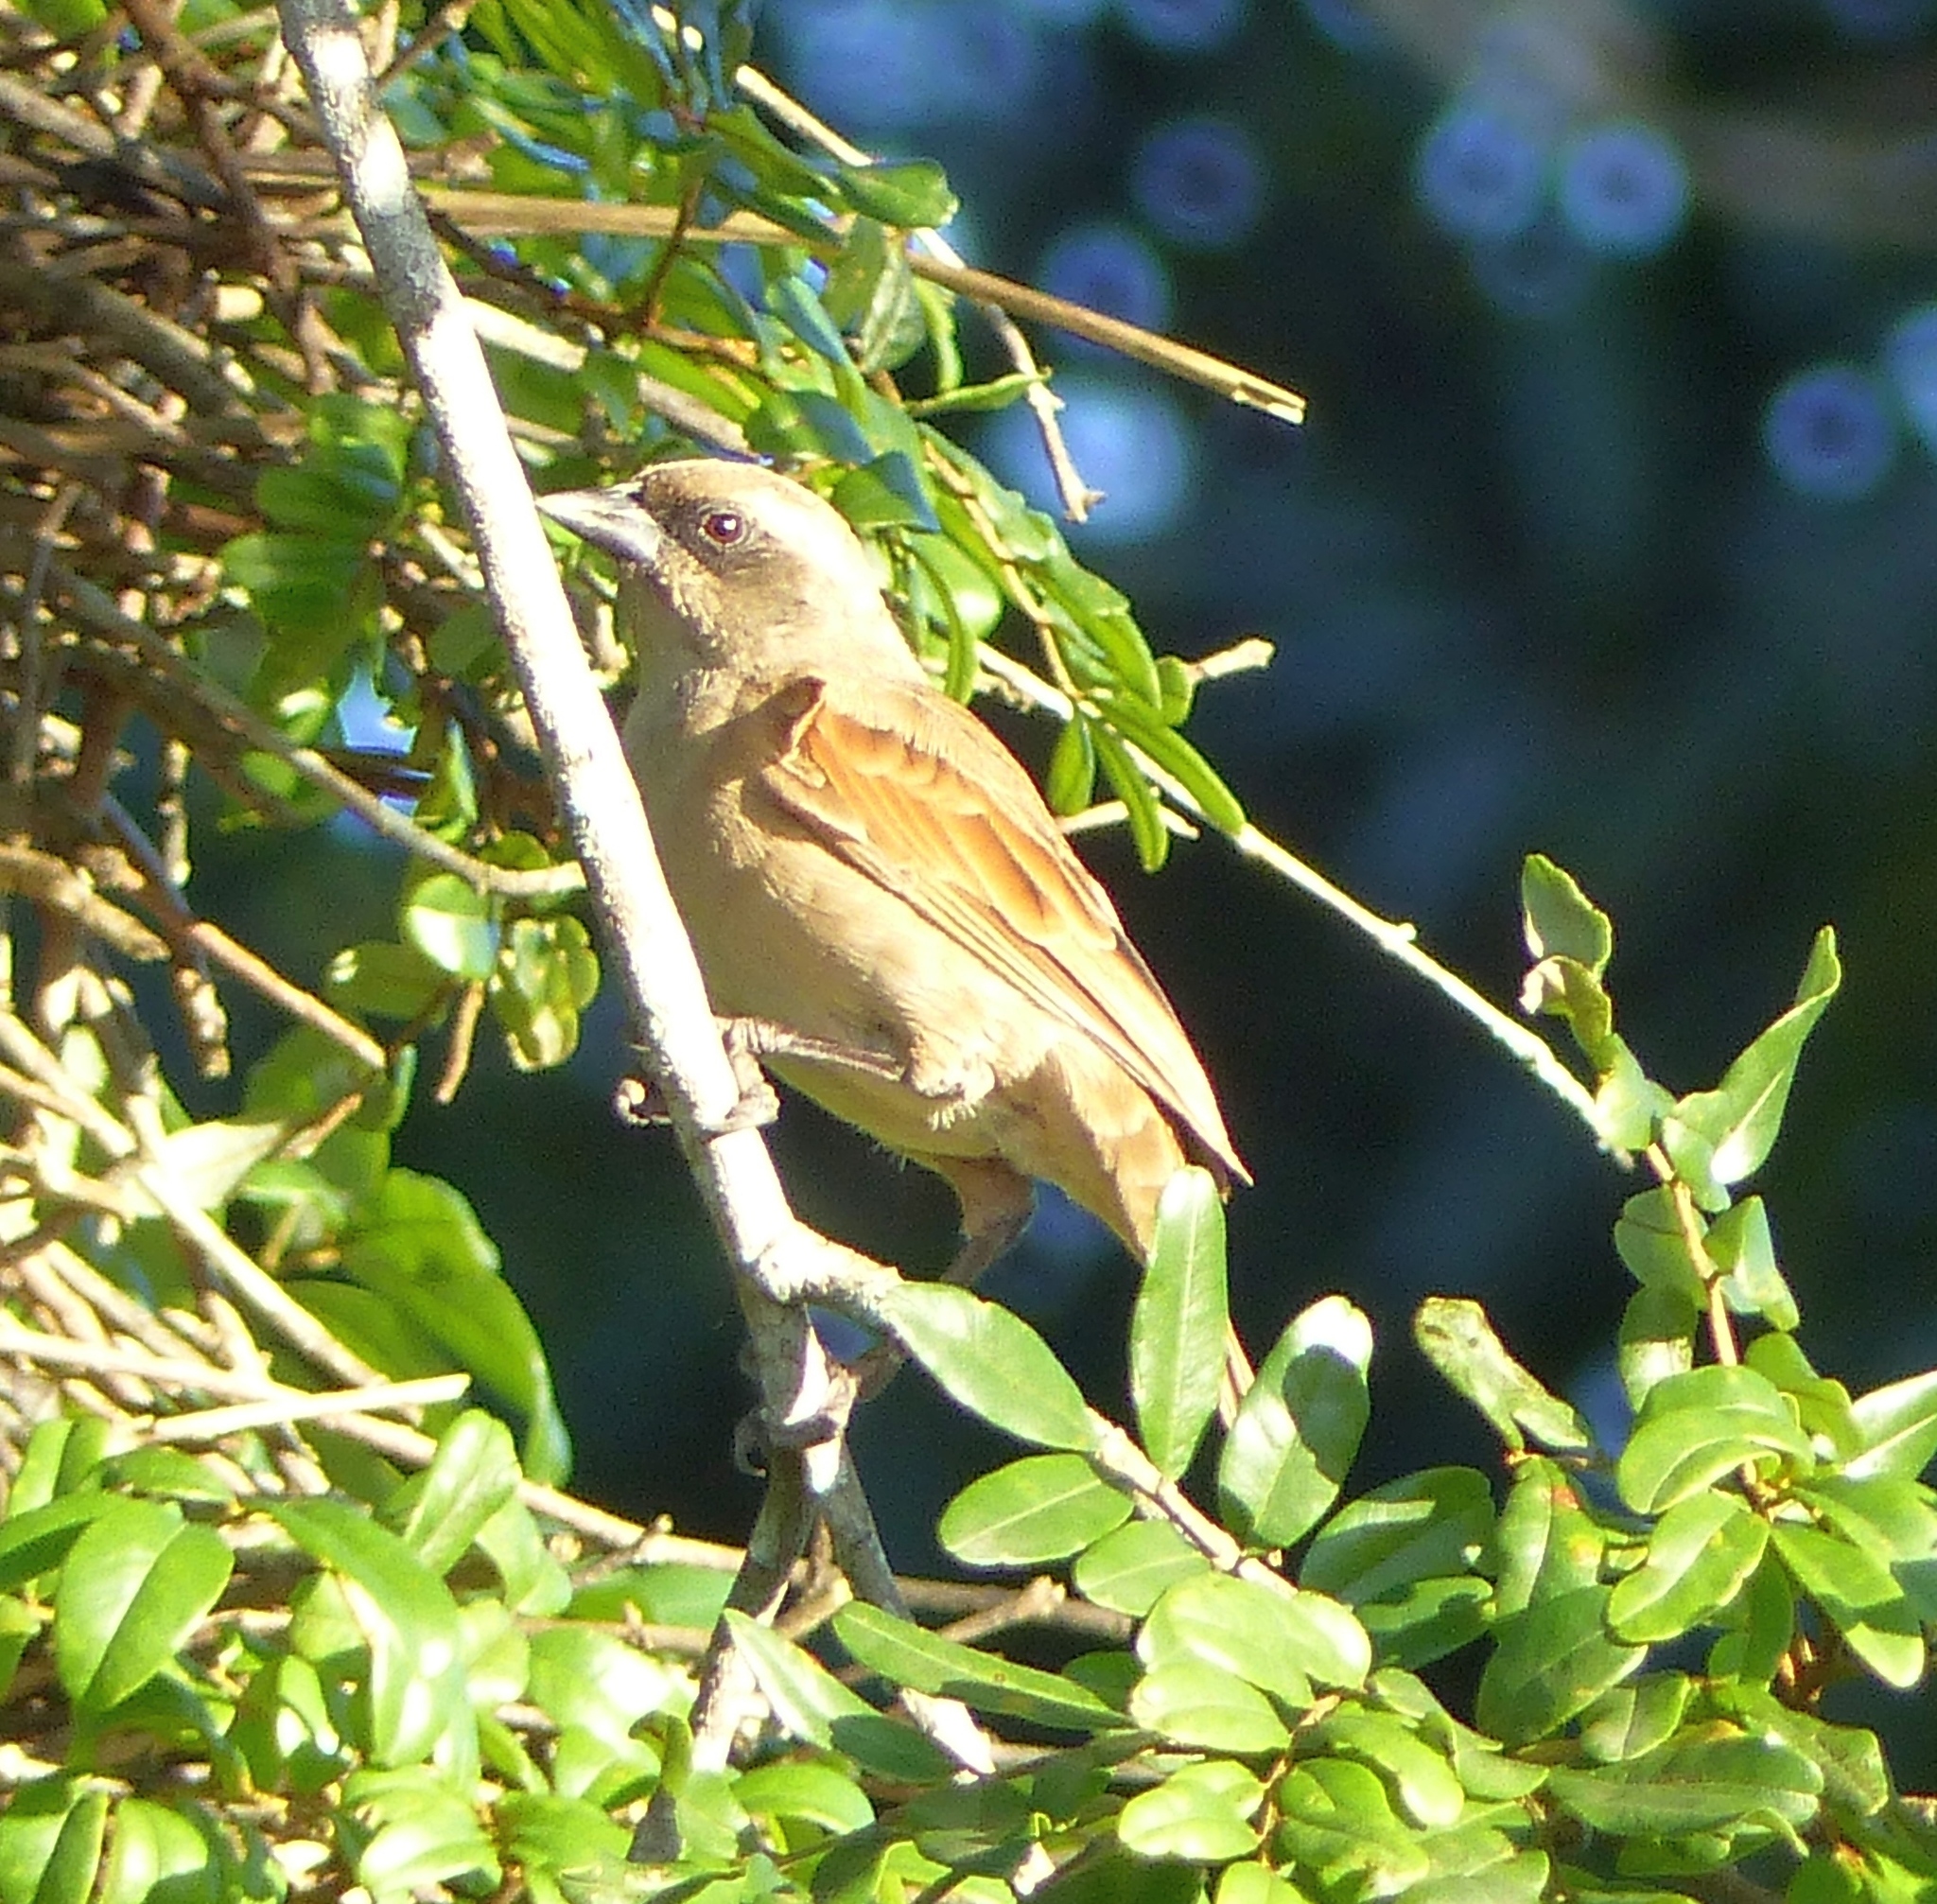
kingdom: Animalia
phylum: Chordata
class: Aves
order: Passeriformes
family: Icteridae
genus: Agelaioides
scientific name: Agelaioides badius
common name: Baywing
